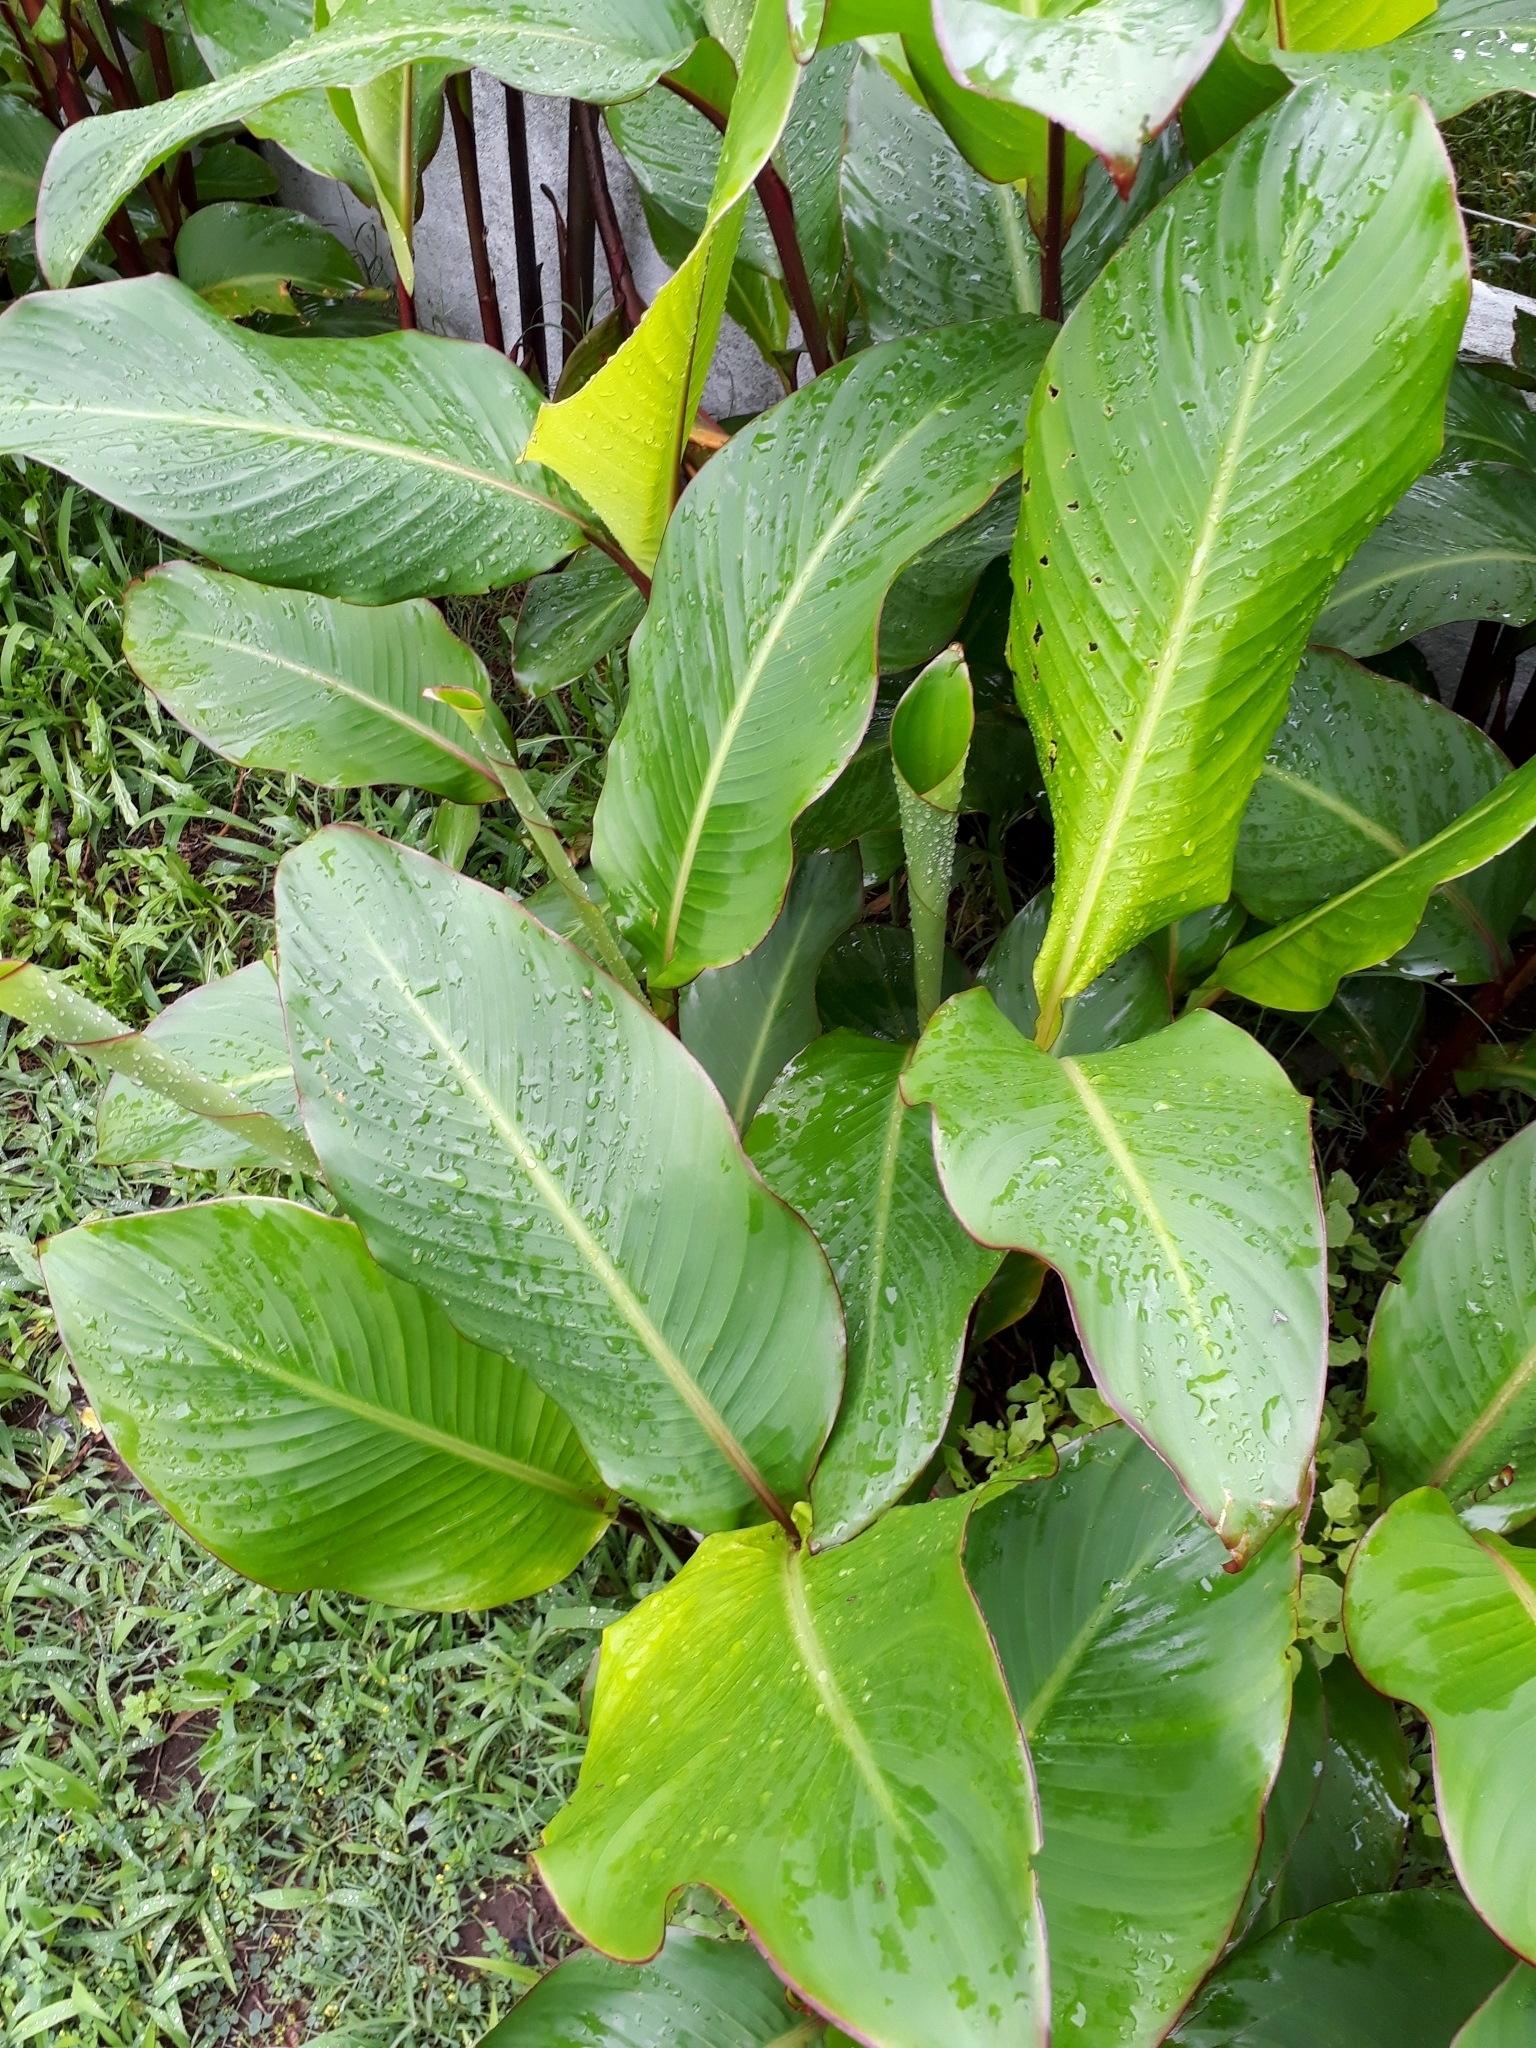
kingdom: Plantae
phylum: Tracheophyta
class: Liliopsida
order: Zingiberales
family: Cannaceae
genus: Canna
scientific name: Canna indica
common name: Indian shot
